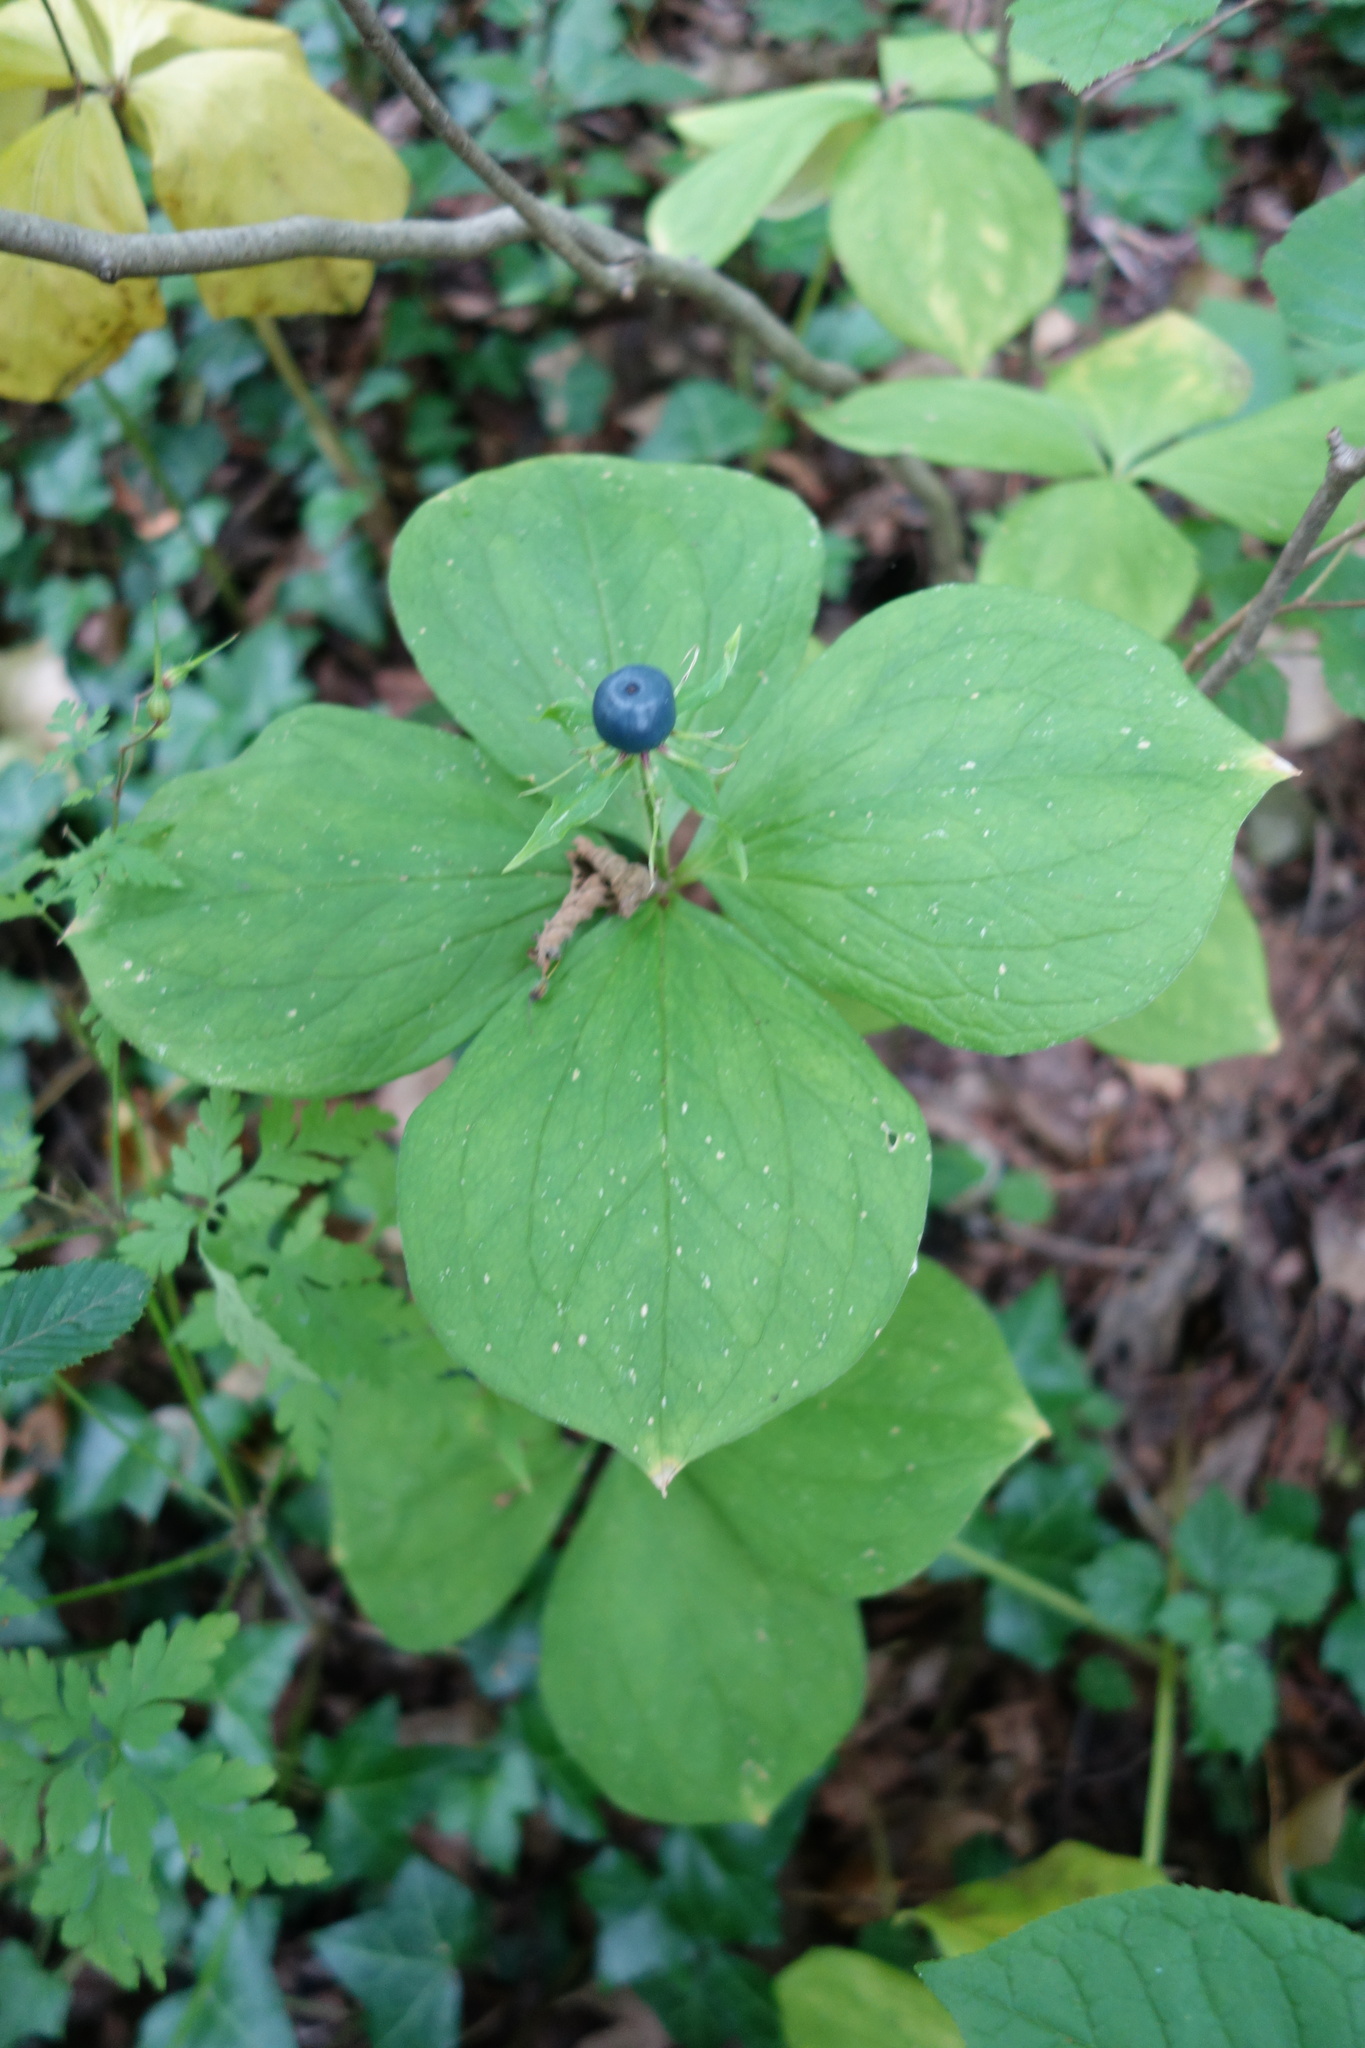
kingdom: Plantae
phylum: Tracheophyta
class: Liliopsida
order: Liliales
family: Melanthiaceae
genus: Paris
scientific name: Paris quadrifolia
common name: Herb-paris
